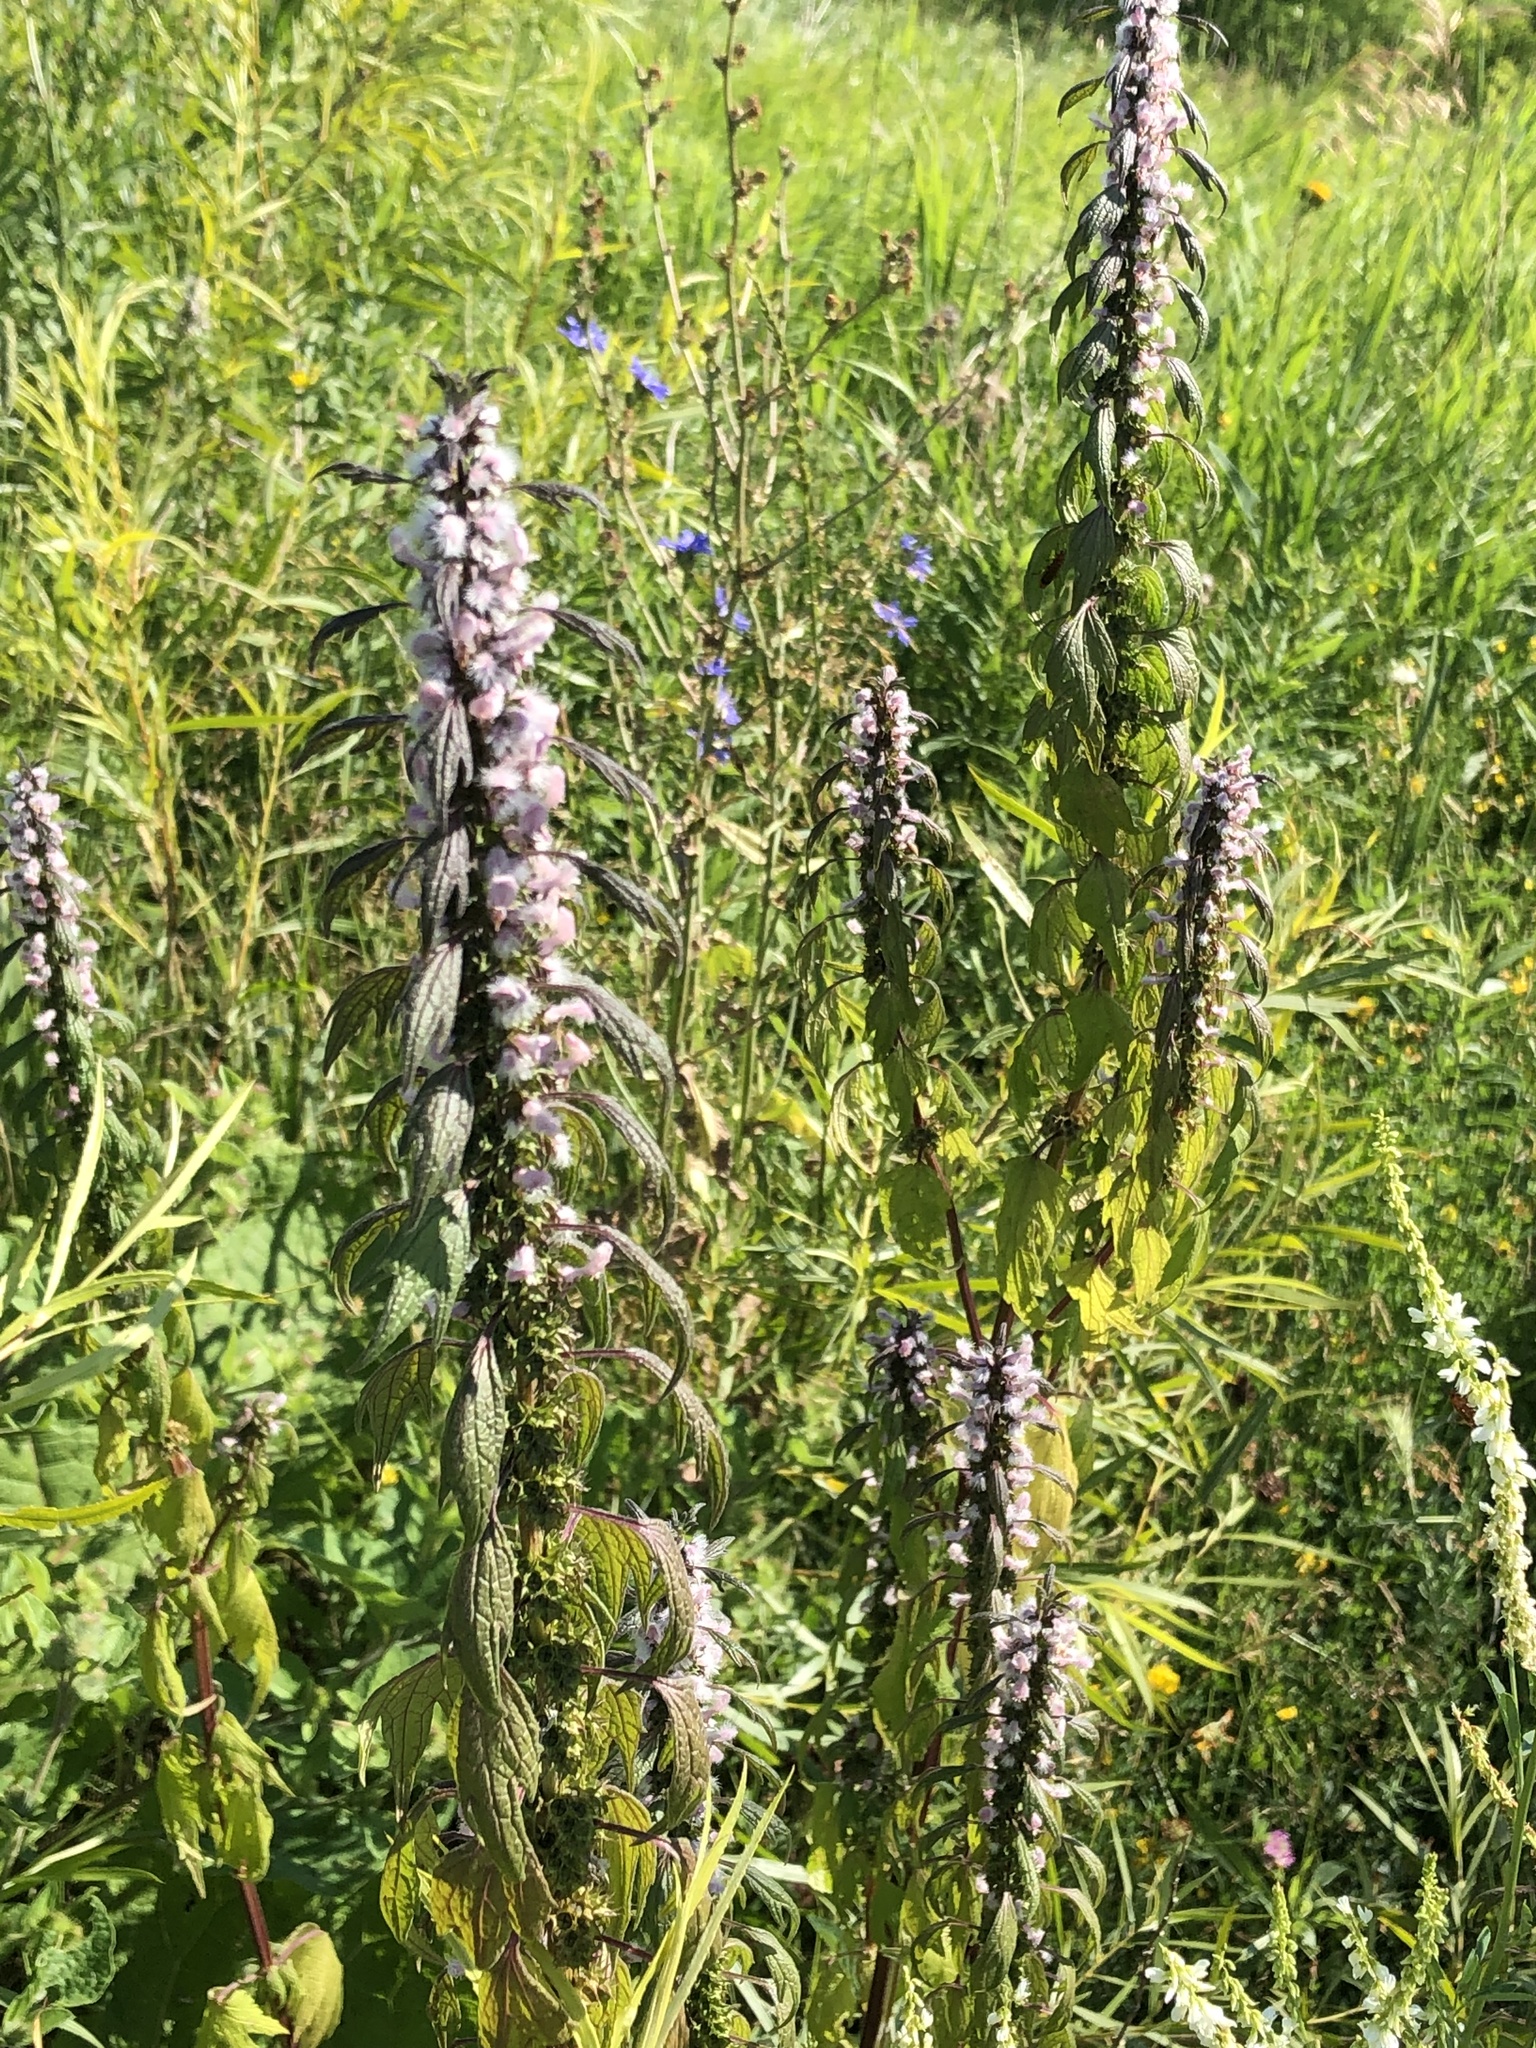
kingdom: Plantae
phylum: Tracheophyta
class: Magnoliopsida
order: Lamiales
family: Lamiaceae
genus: Leonurus
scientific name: Leonurus cardiaca
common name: Motherwort
